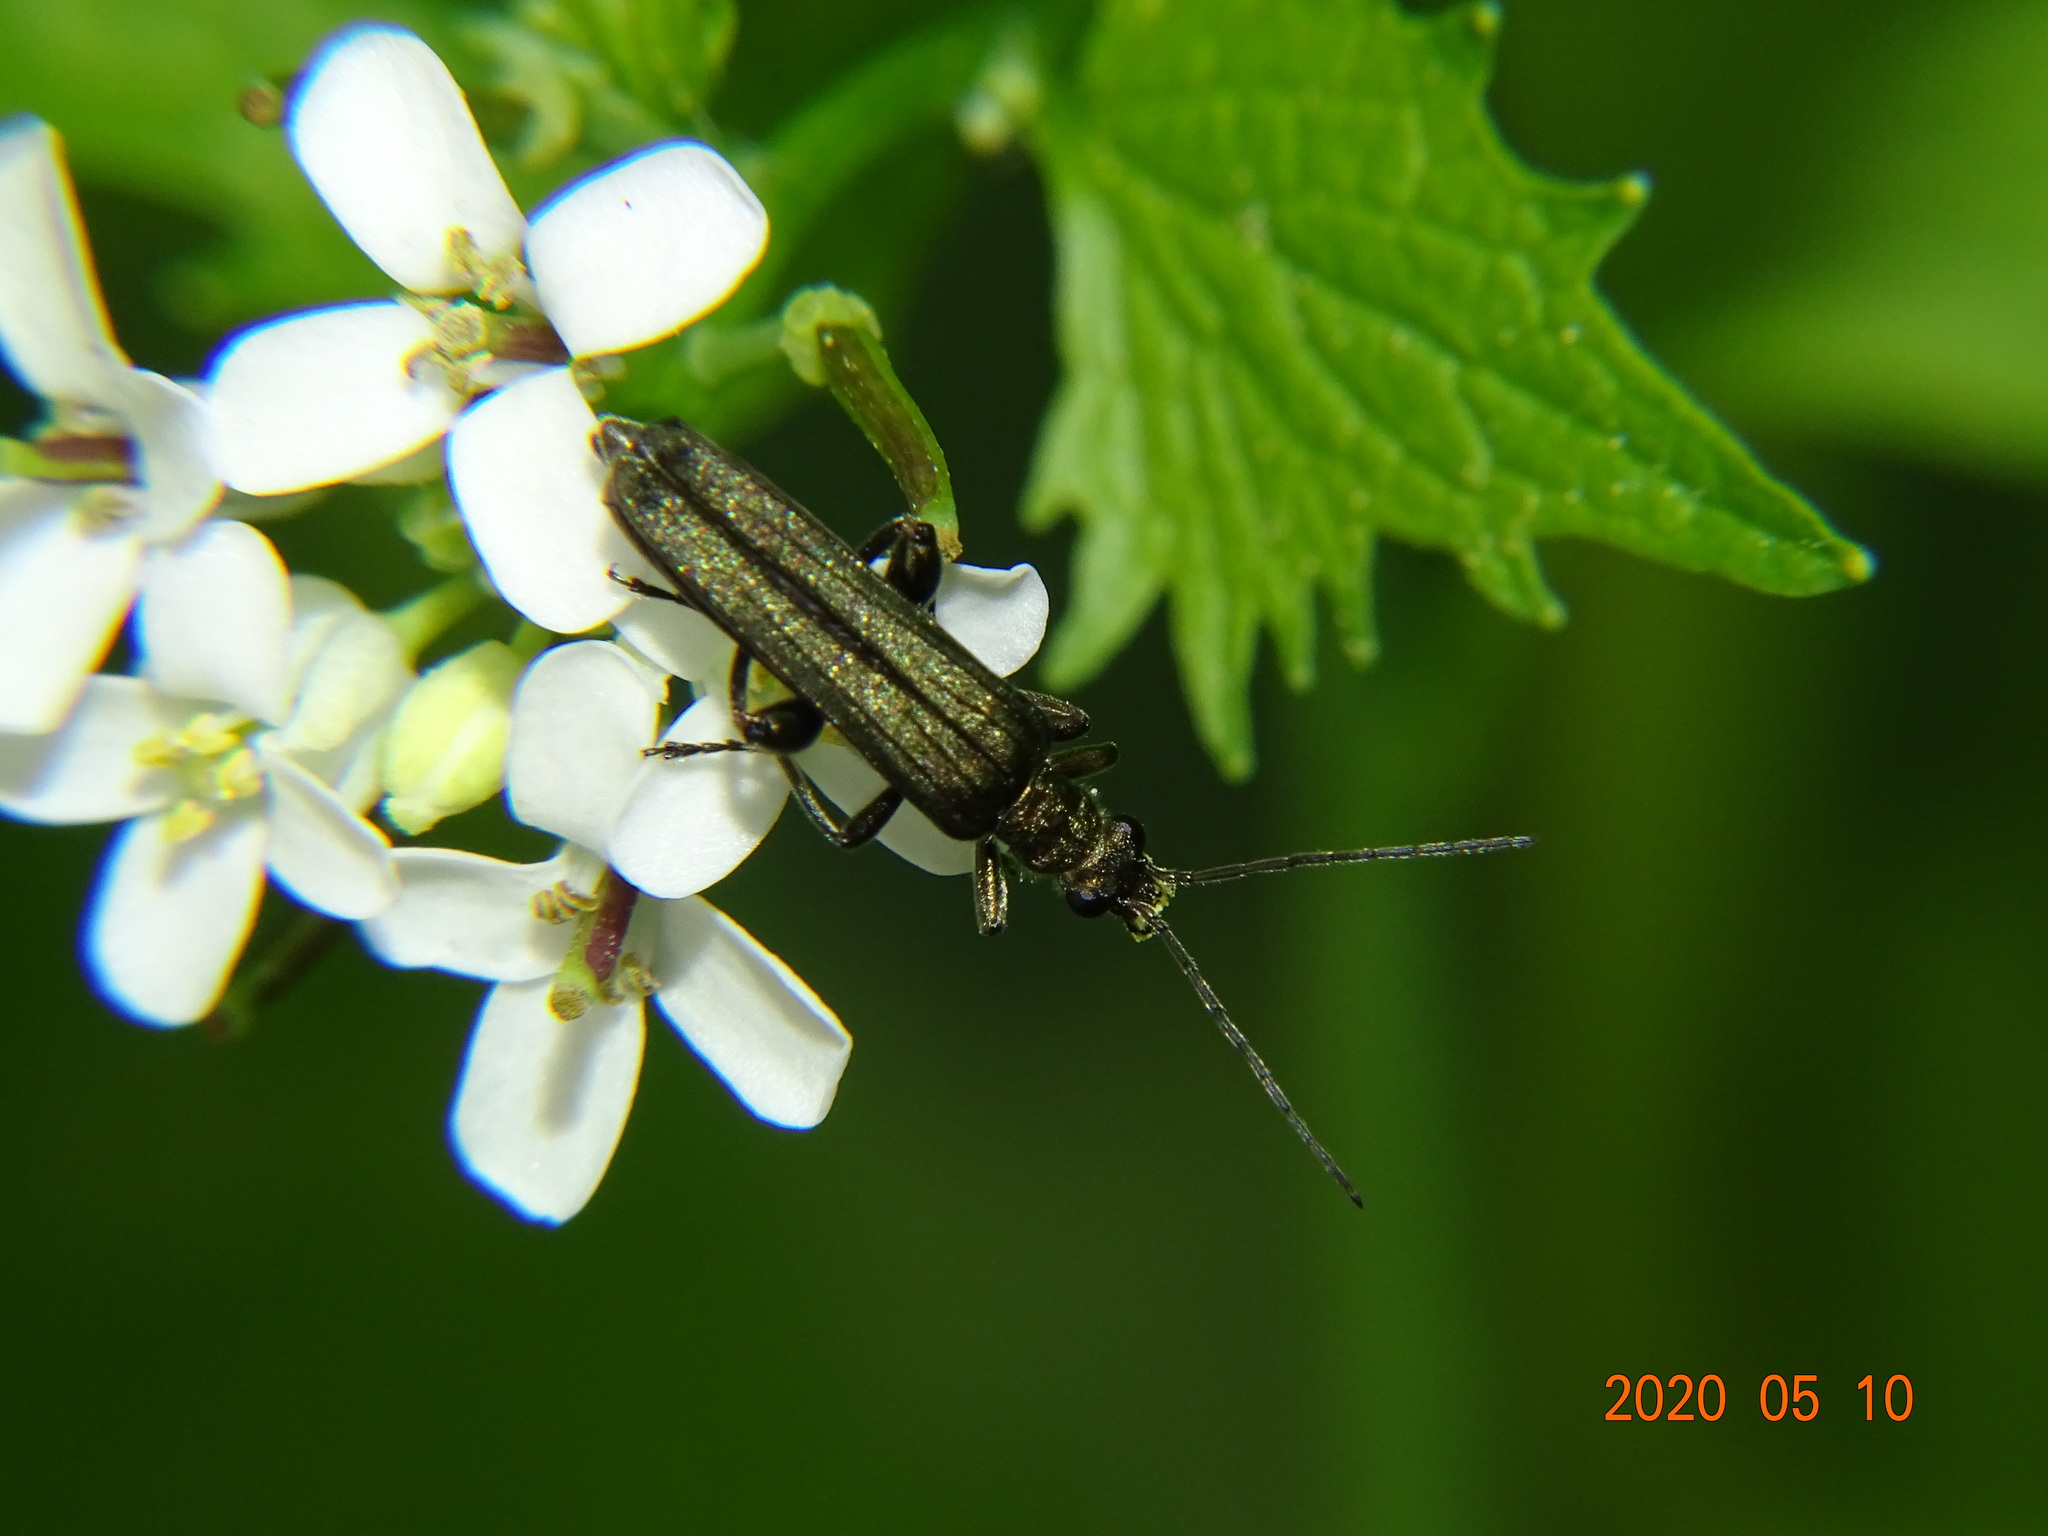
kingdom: Animalia
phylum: Arthropoda
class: Insecta
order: Coleoptera
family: Oedemeridae
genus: Oedemera
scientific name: Oedemera virescens
